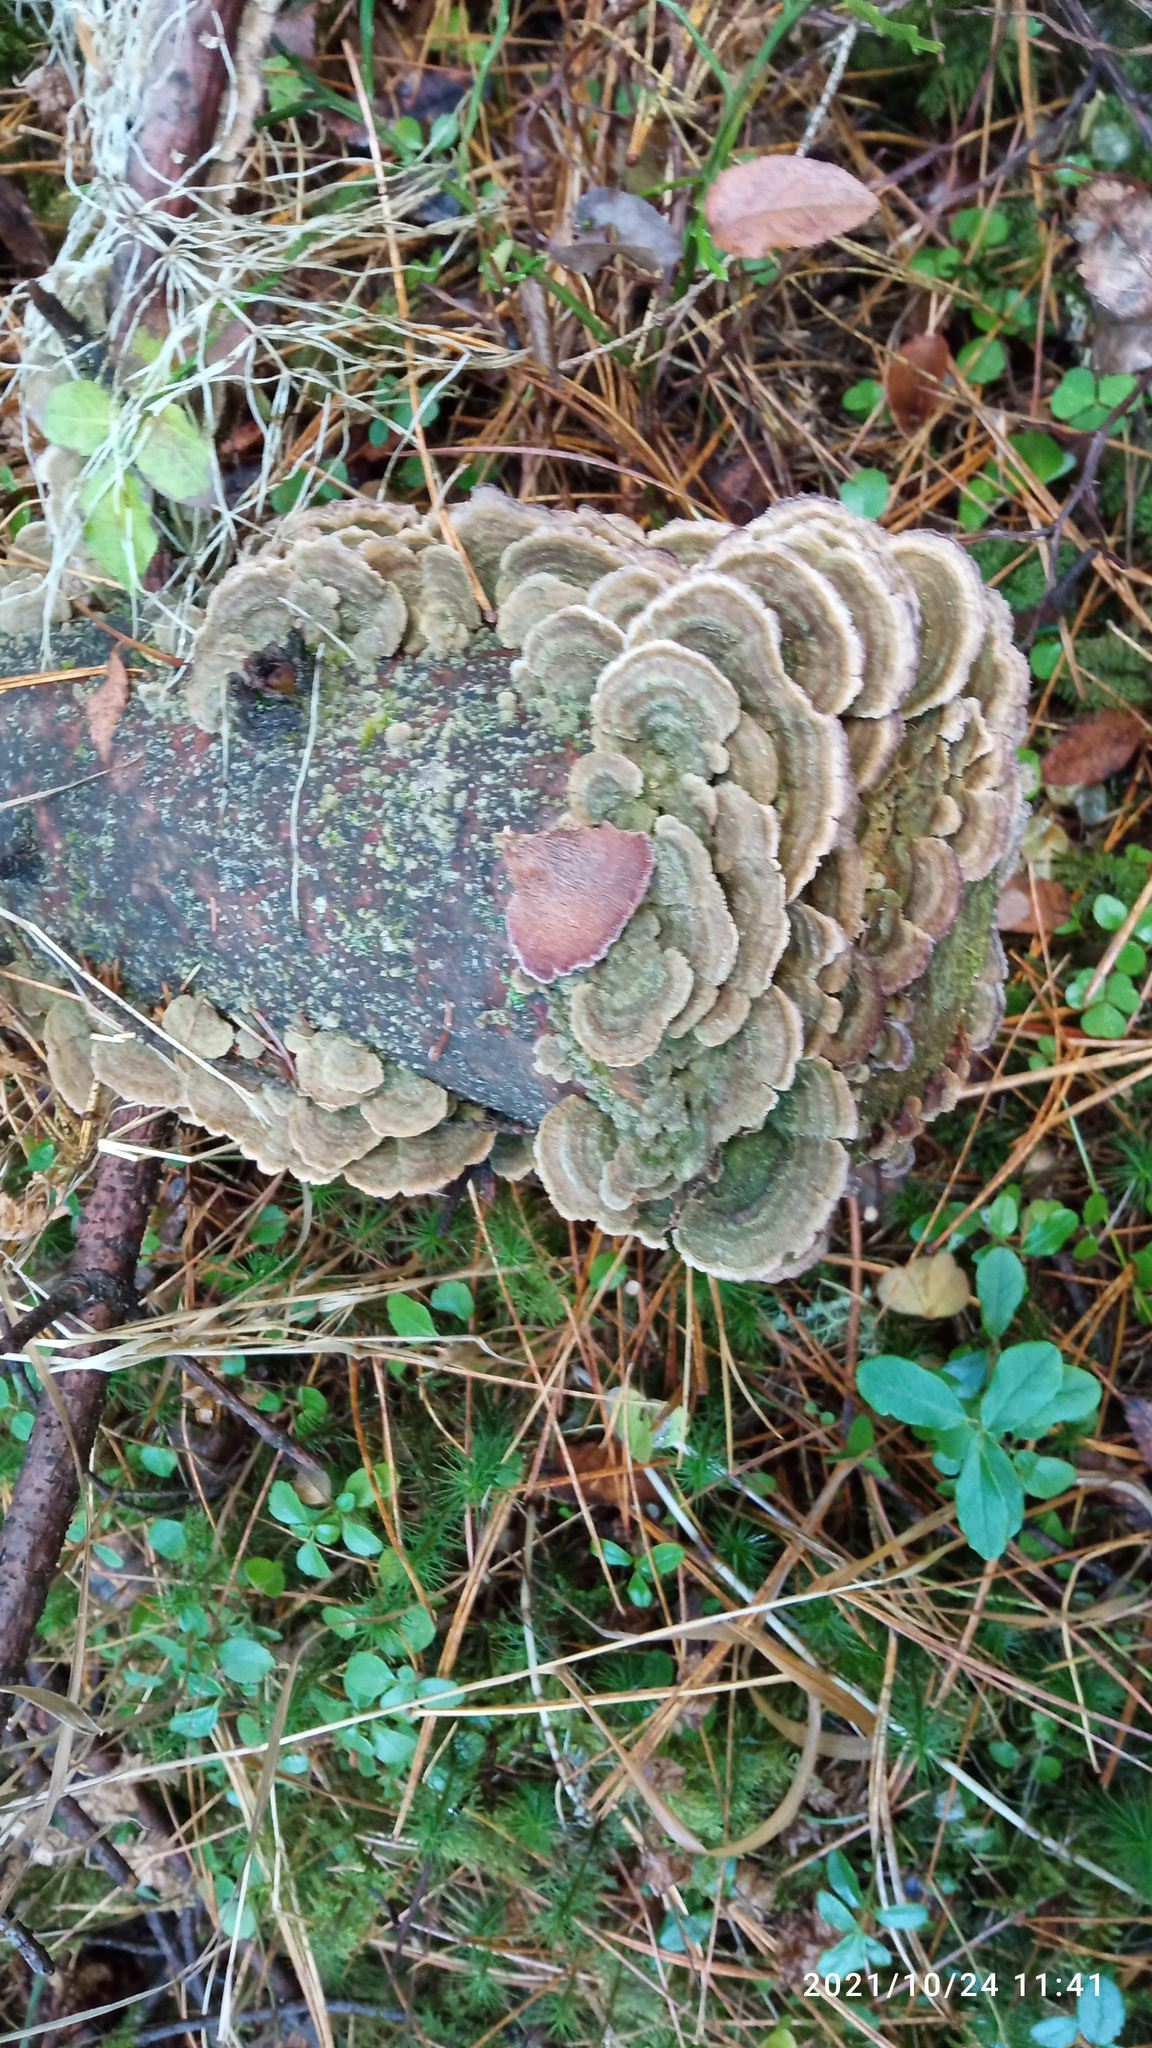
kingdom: Fungi
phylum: Basidiomycota
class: Agaricomycetes
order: Hymenochaetales
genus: Trichaptum
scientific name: Trichaptum fuscoviolaceum
